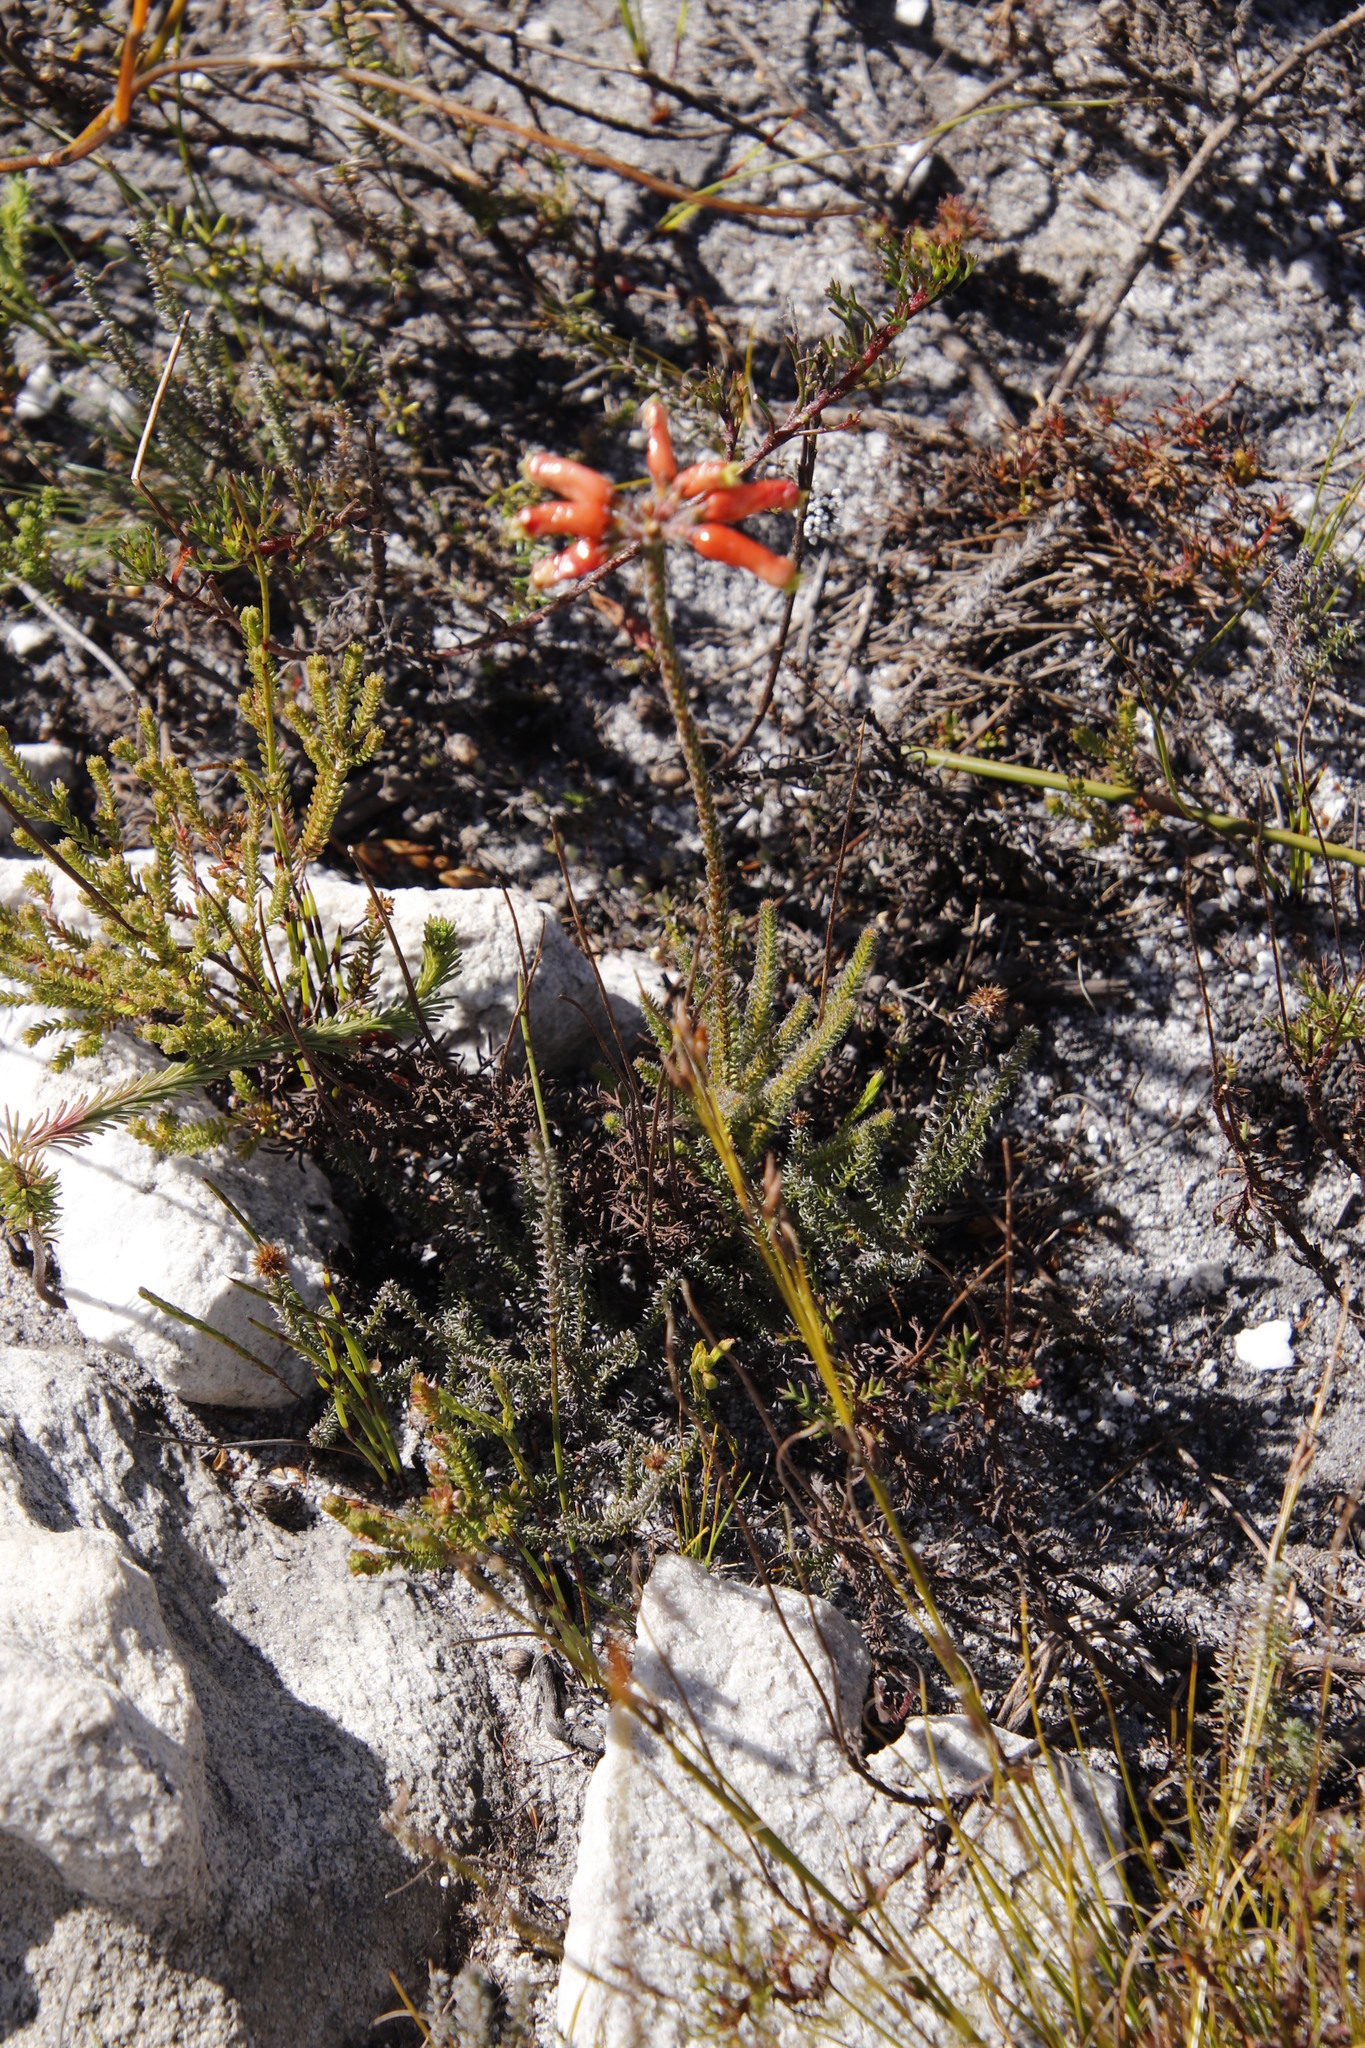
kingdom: Plantae
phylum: Tracheophyta
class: Magnoliopsida
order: Ericales
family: Ericaceae
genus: Erica
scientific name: Erica massonii
